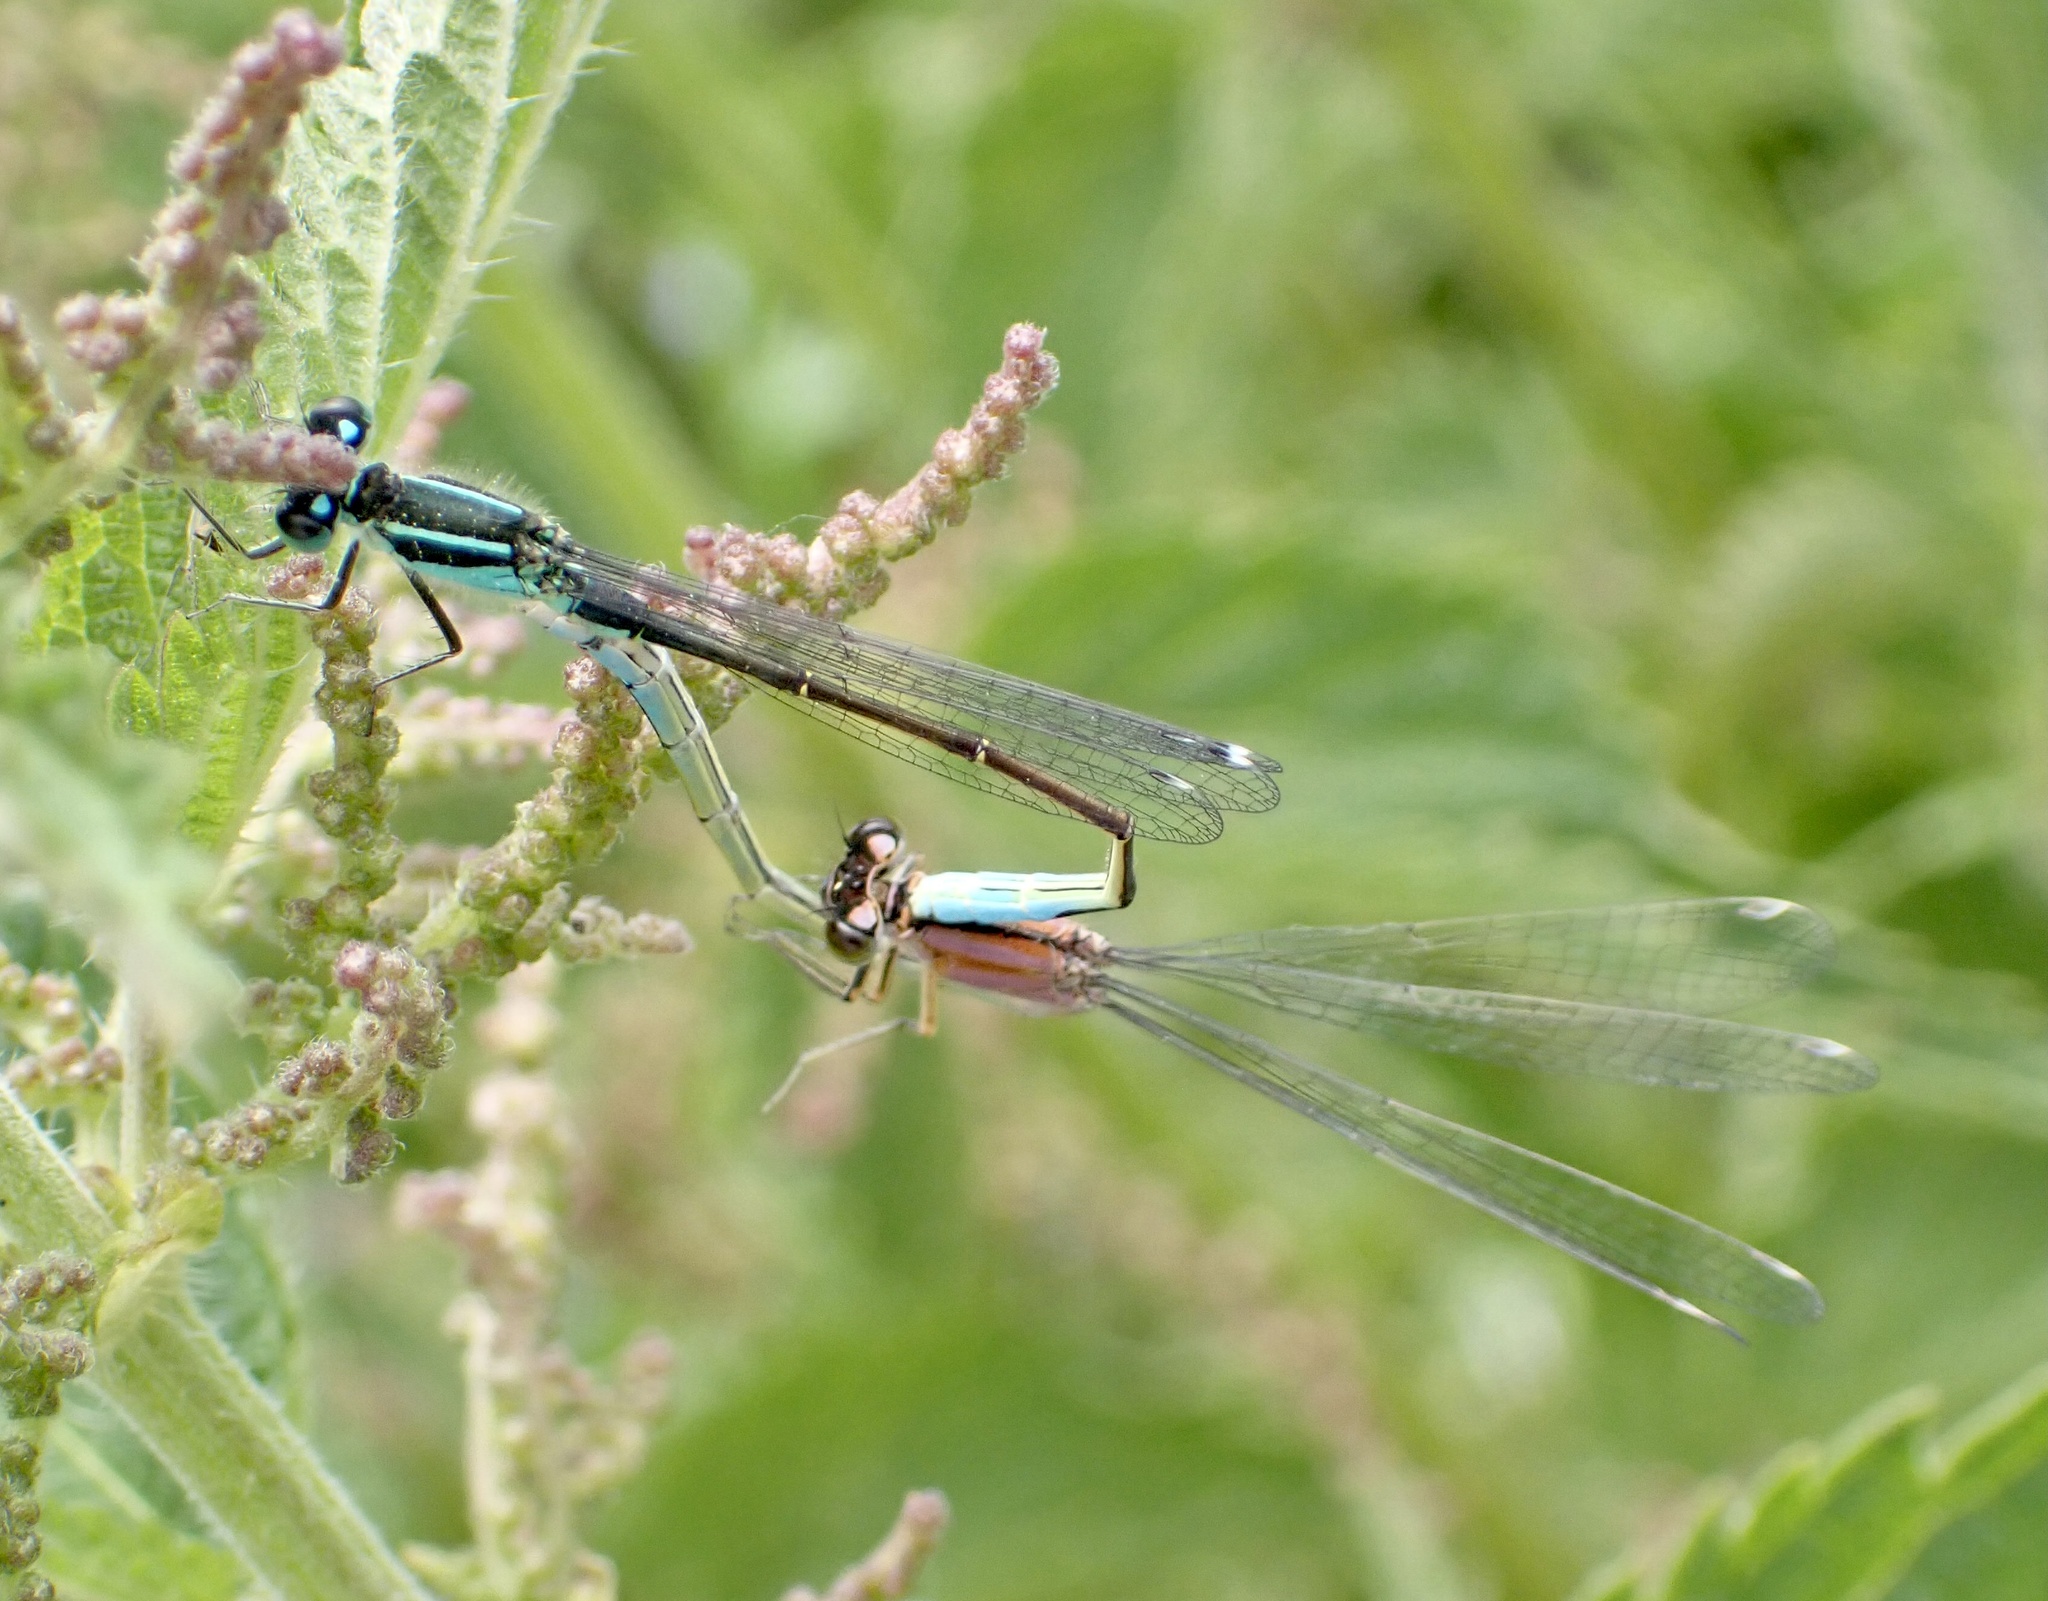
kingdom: Animalia
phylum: Arthropoda
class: Insecta
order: Odonata
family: Coenagrionidae
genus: Ischnura
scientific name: Ischnura elegans
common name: Blue-tailed damselfly
